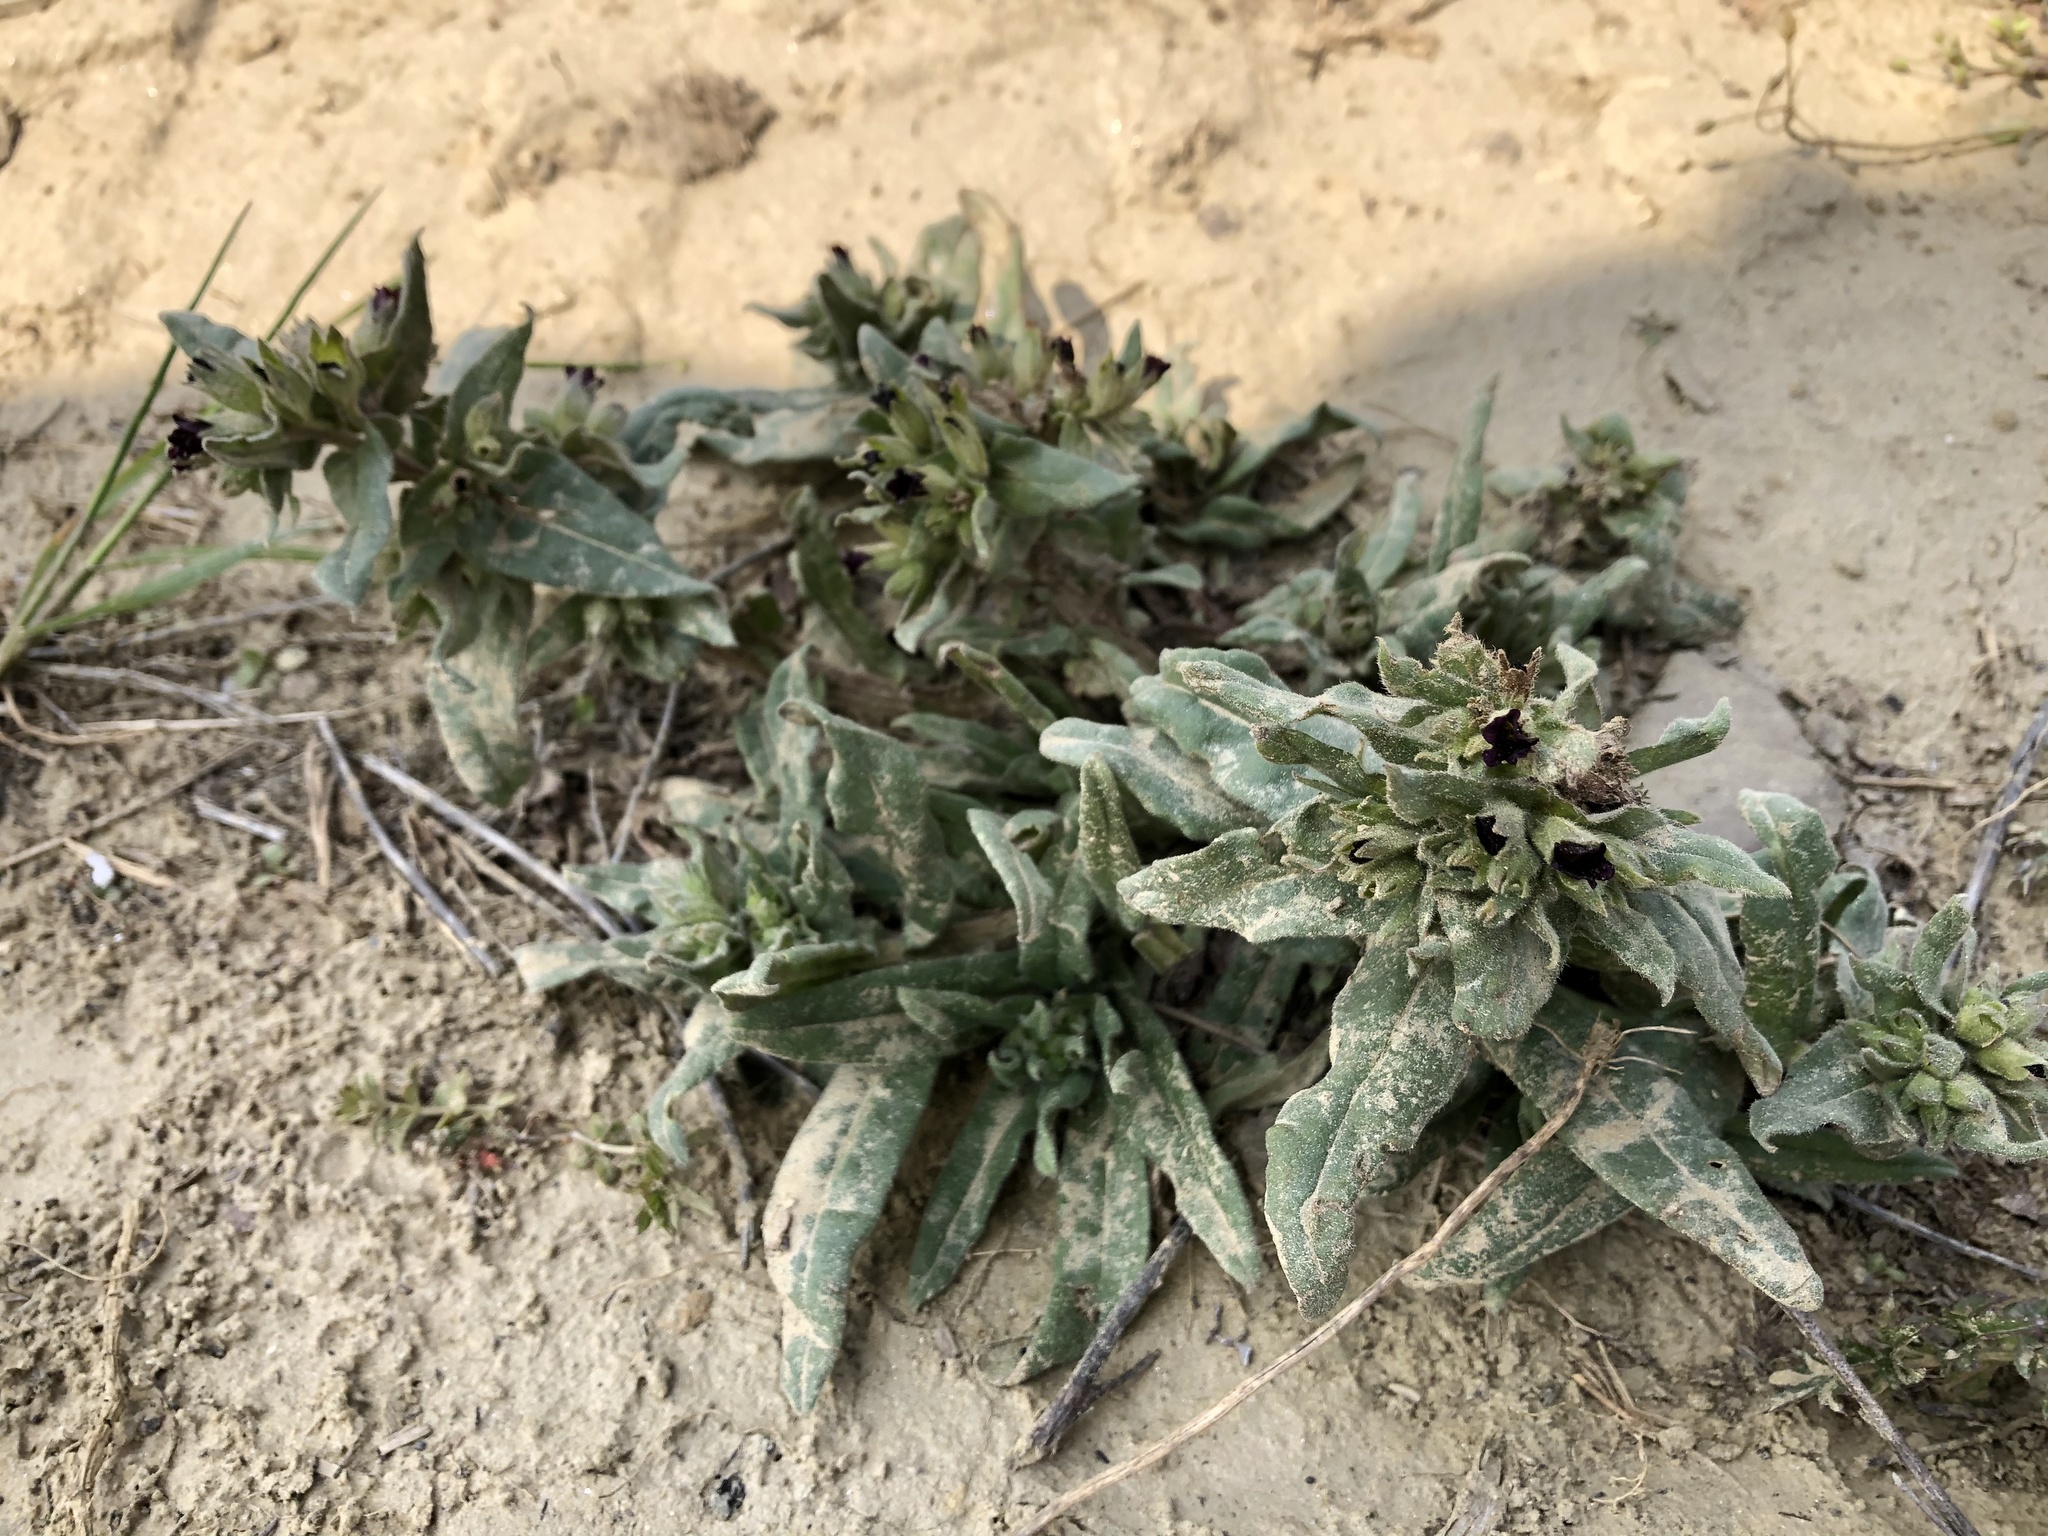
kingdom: Plantae
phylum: Tracheophyta
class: Magnoliopsida
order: Boraginales
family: Boraginaceae
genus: Nonea
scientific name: Nonea pulla
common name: Brown nonea
